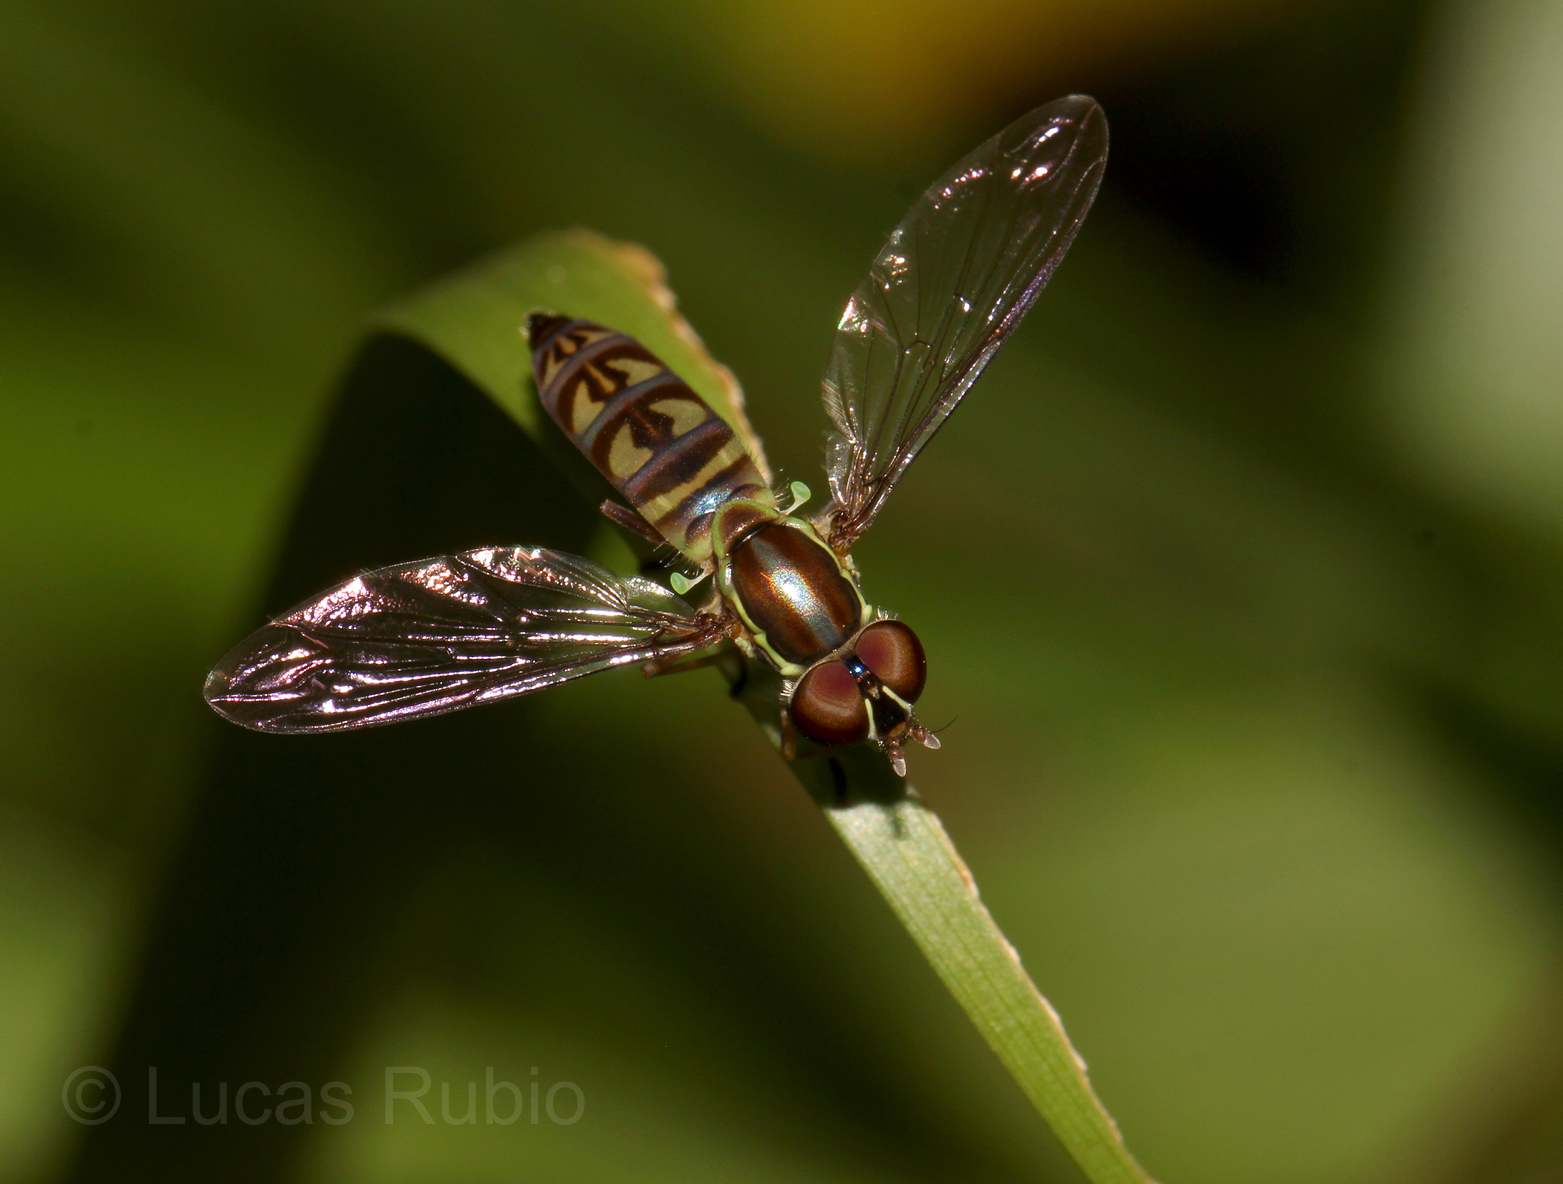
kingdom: Animalia
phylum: Arthropoda
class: Insecta
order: Diptera
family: Syrphidae
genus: Toxomerus
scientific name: Toxomerus tibicen
